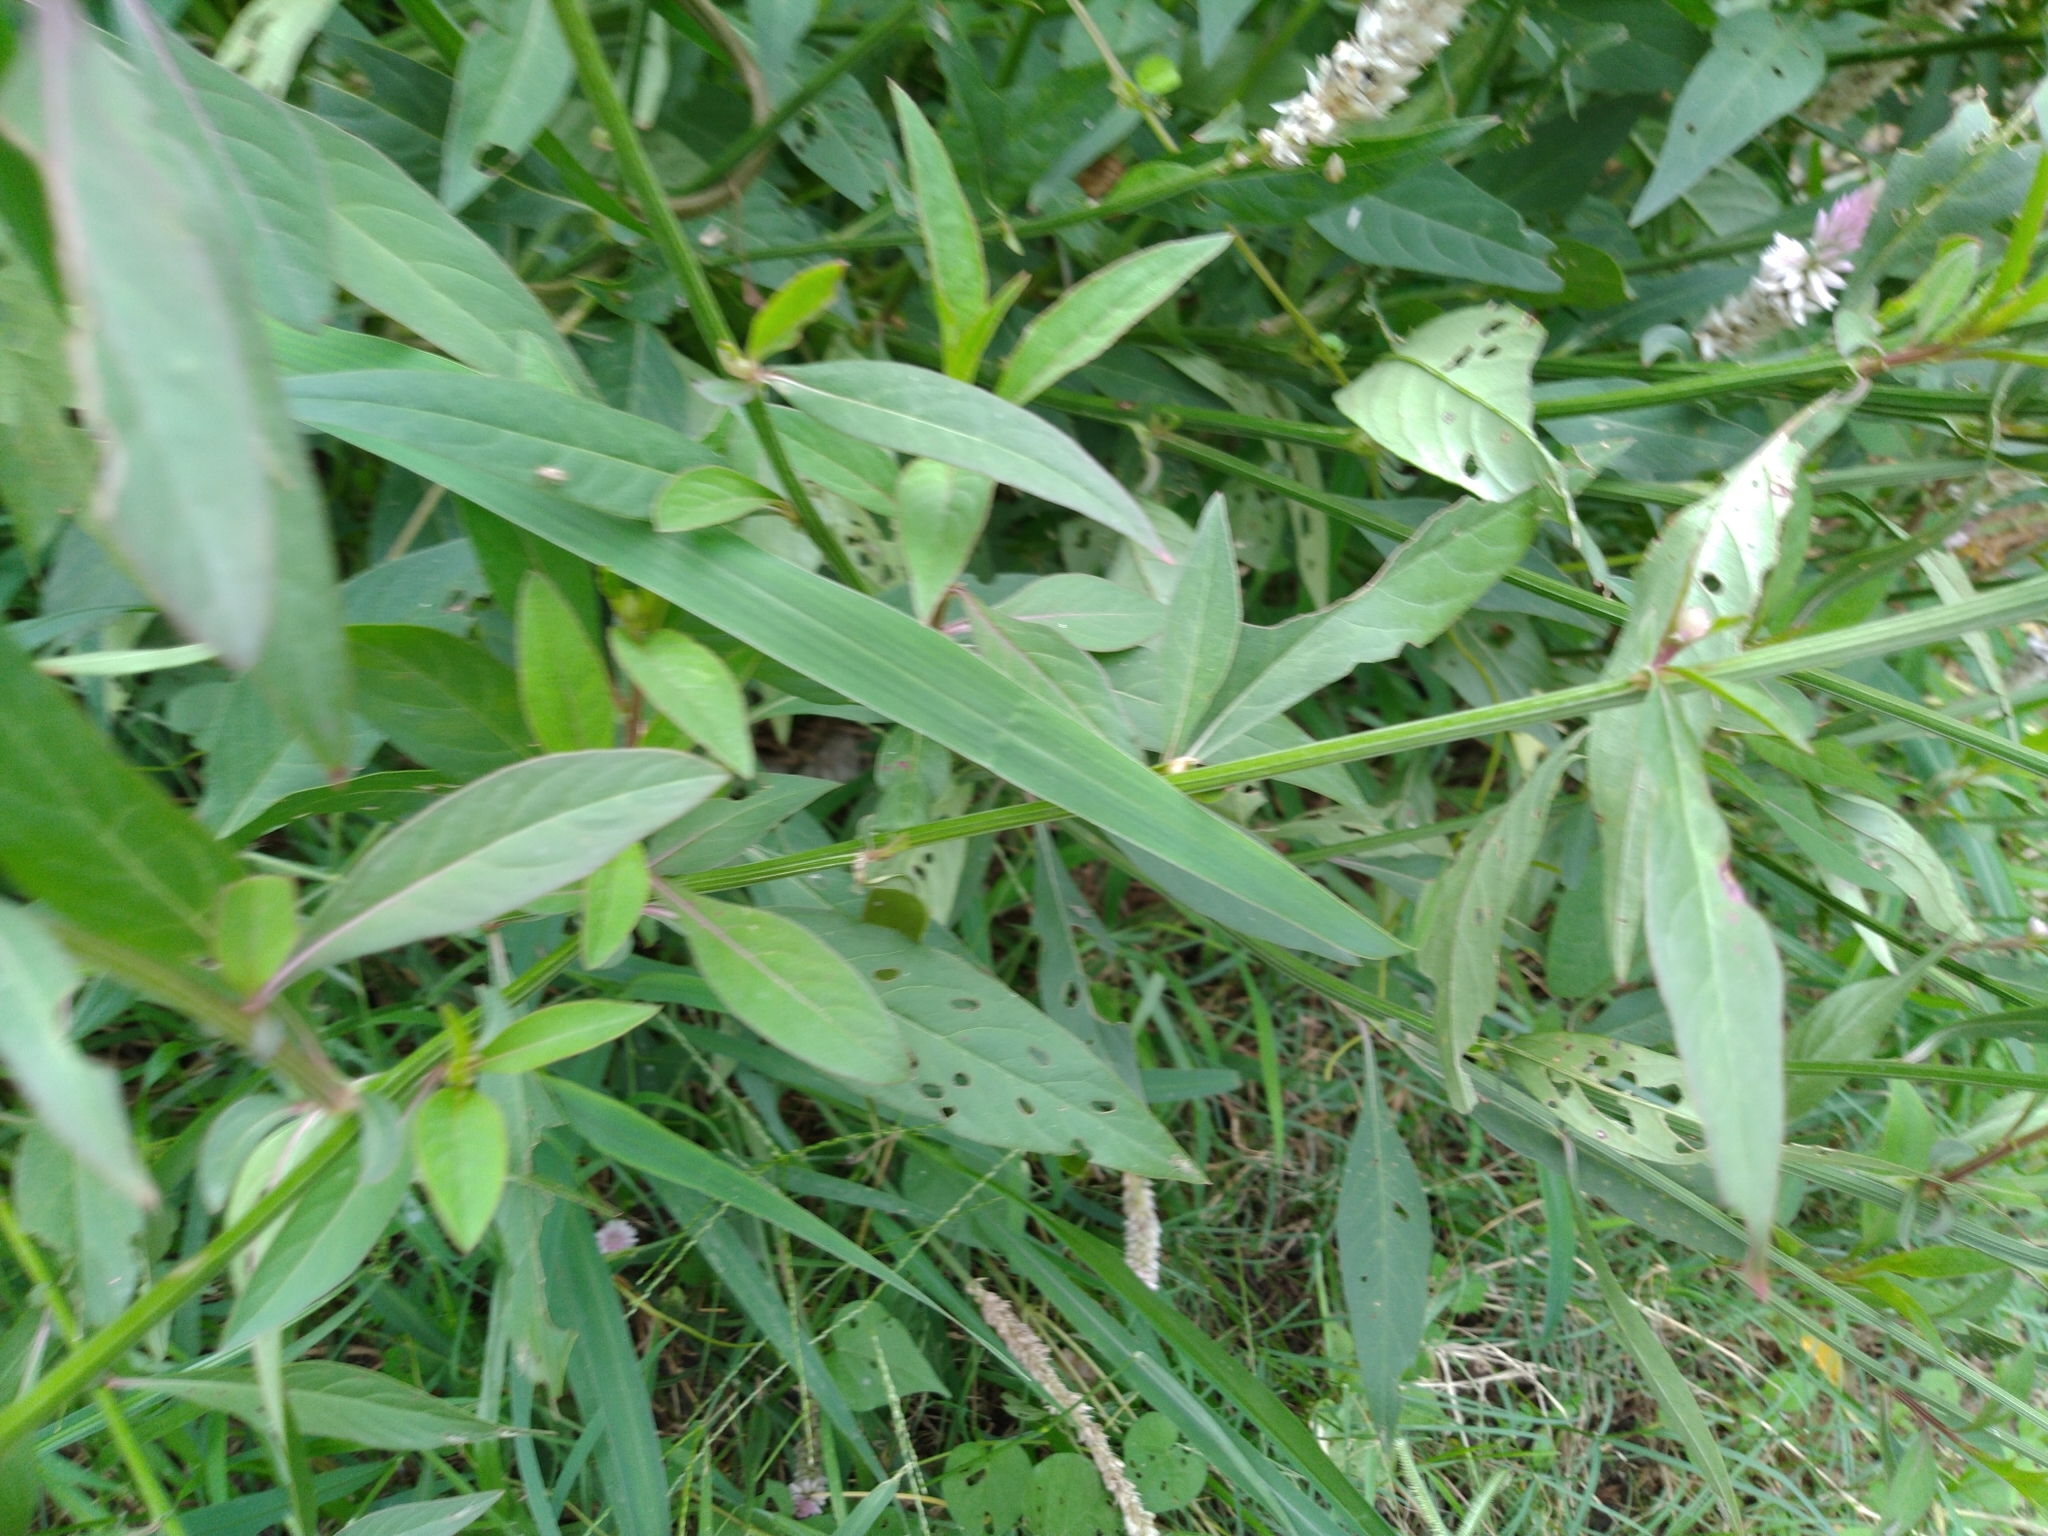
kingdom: Plantae
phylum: Tracheophyta
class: Magnoliopsida
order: Caryophyllales
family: Amaranthaceae
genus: Celosia
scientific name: Celosia argentea
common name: Feather cockscomb
